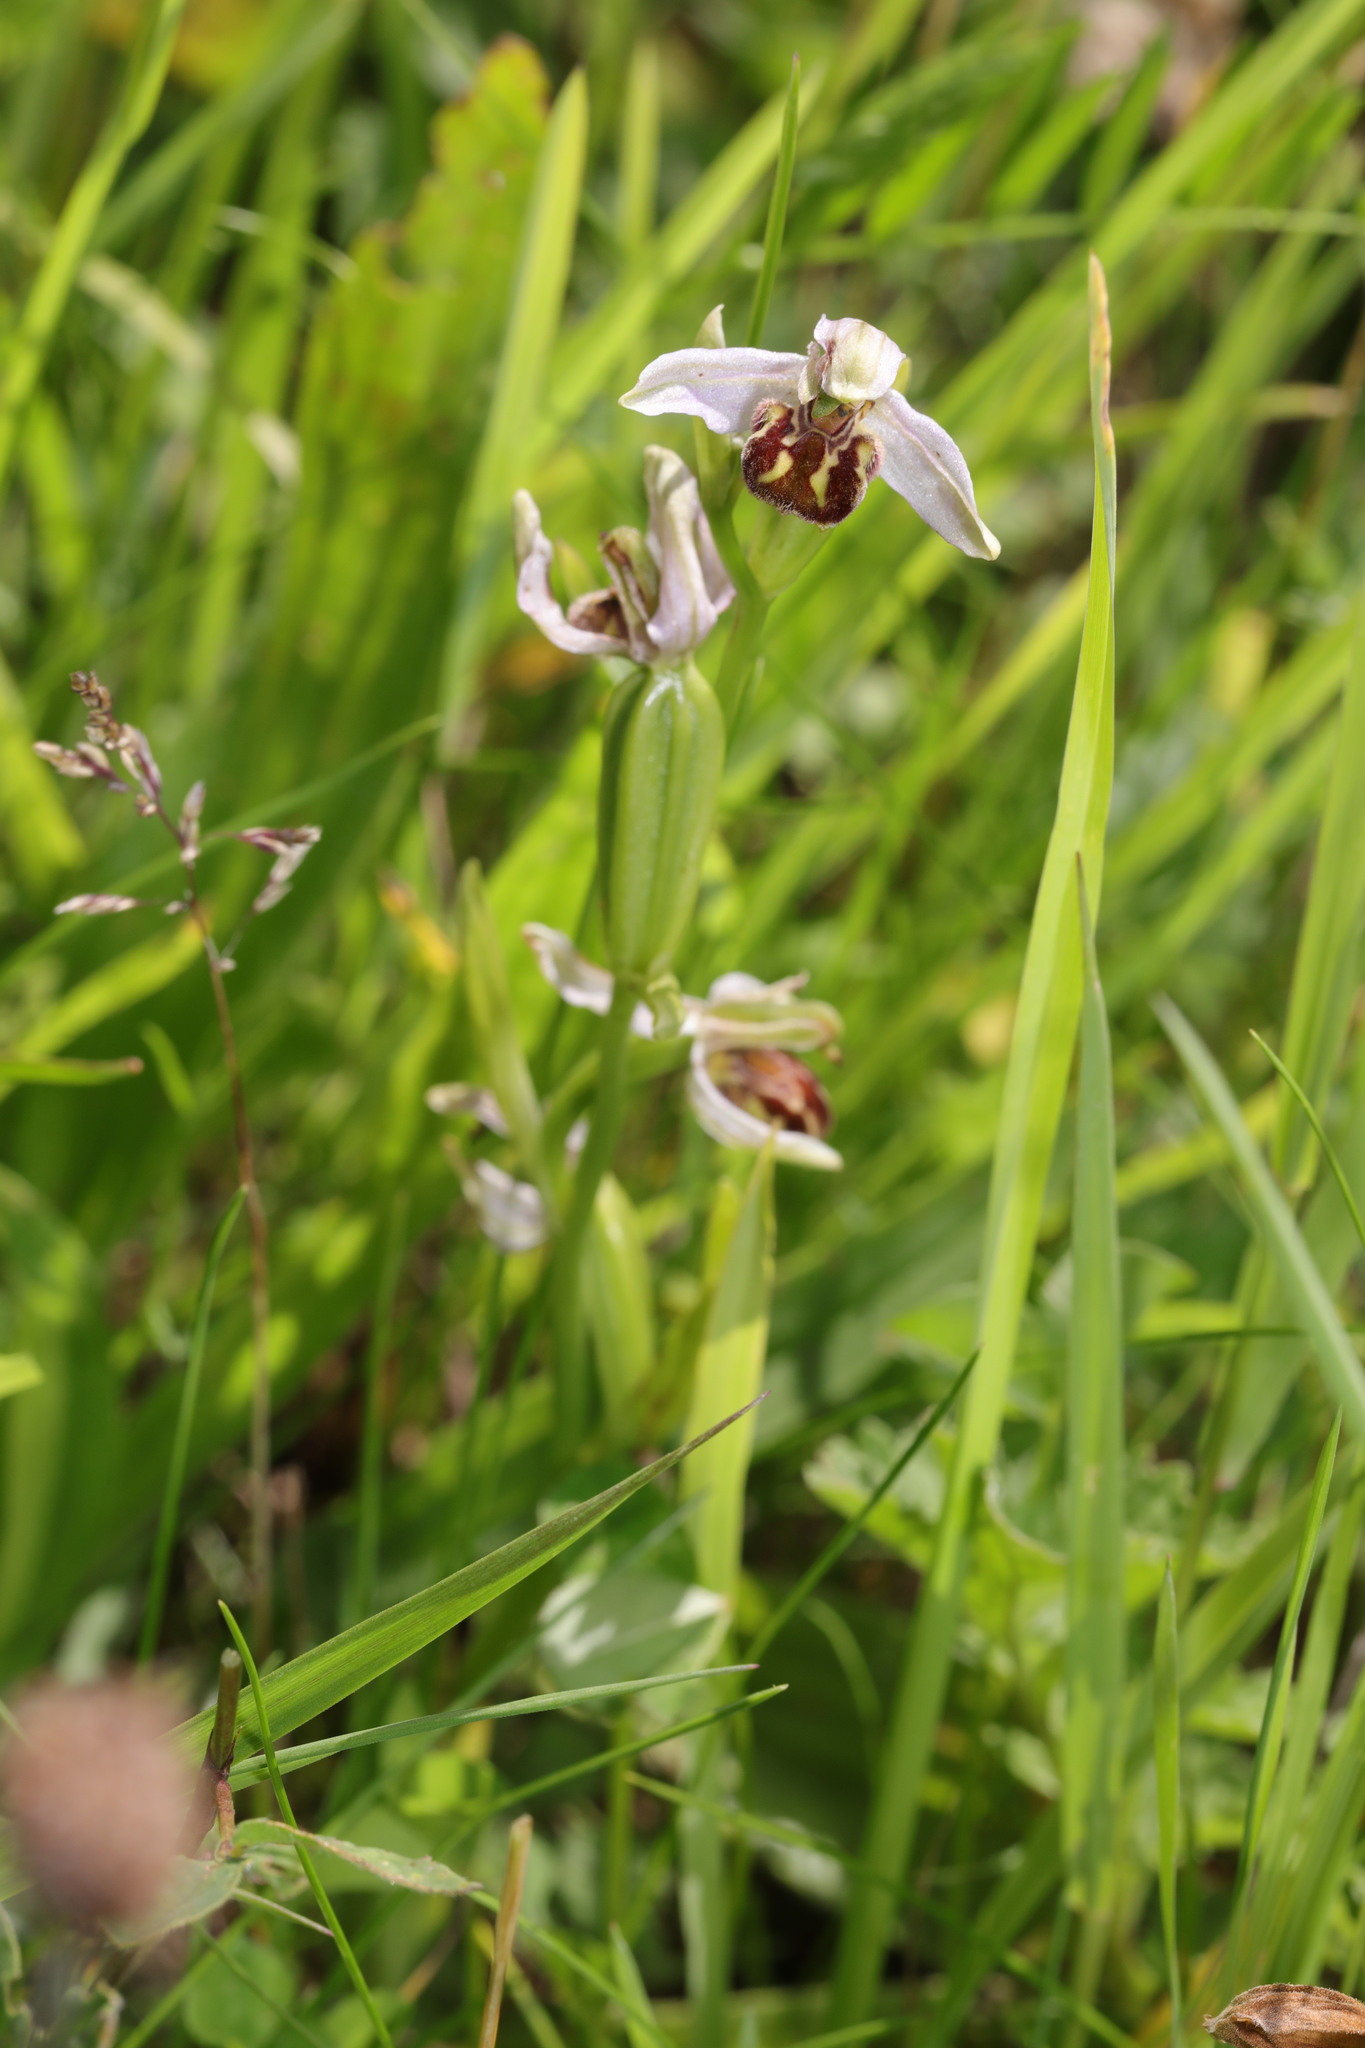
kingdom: Plantae
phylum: Tracheophyta
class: Liliopsida
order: Asparagales
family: Orchidaceae
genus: Ophrys
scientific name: Ophrys apifera
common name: Bee orchid
